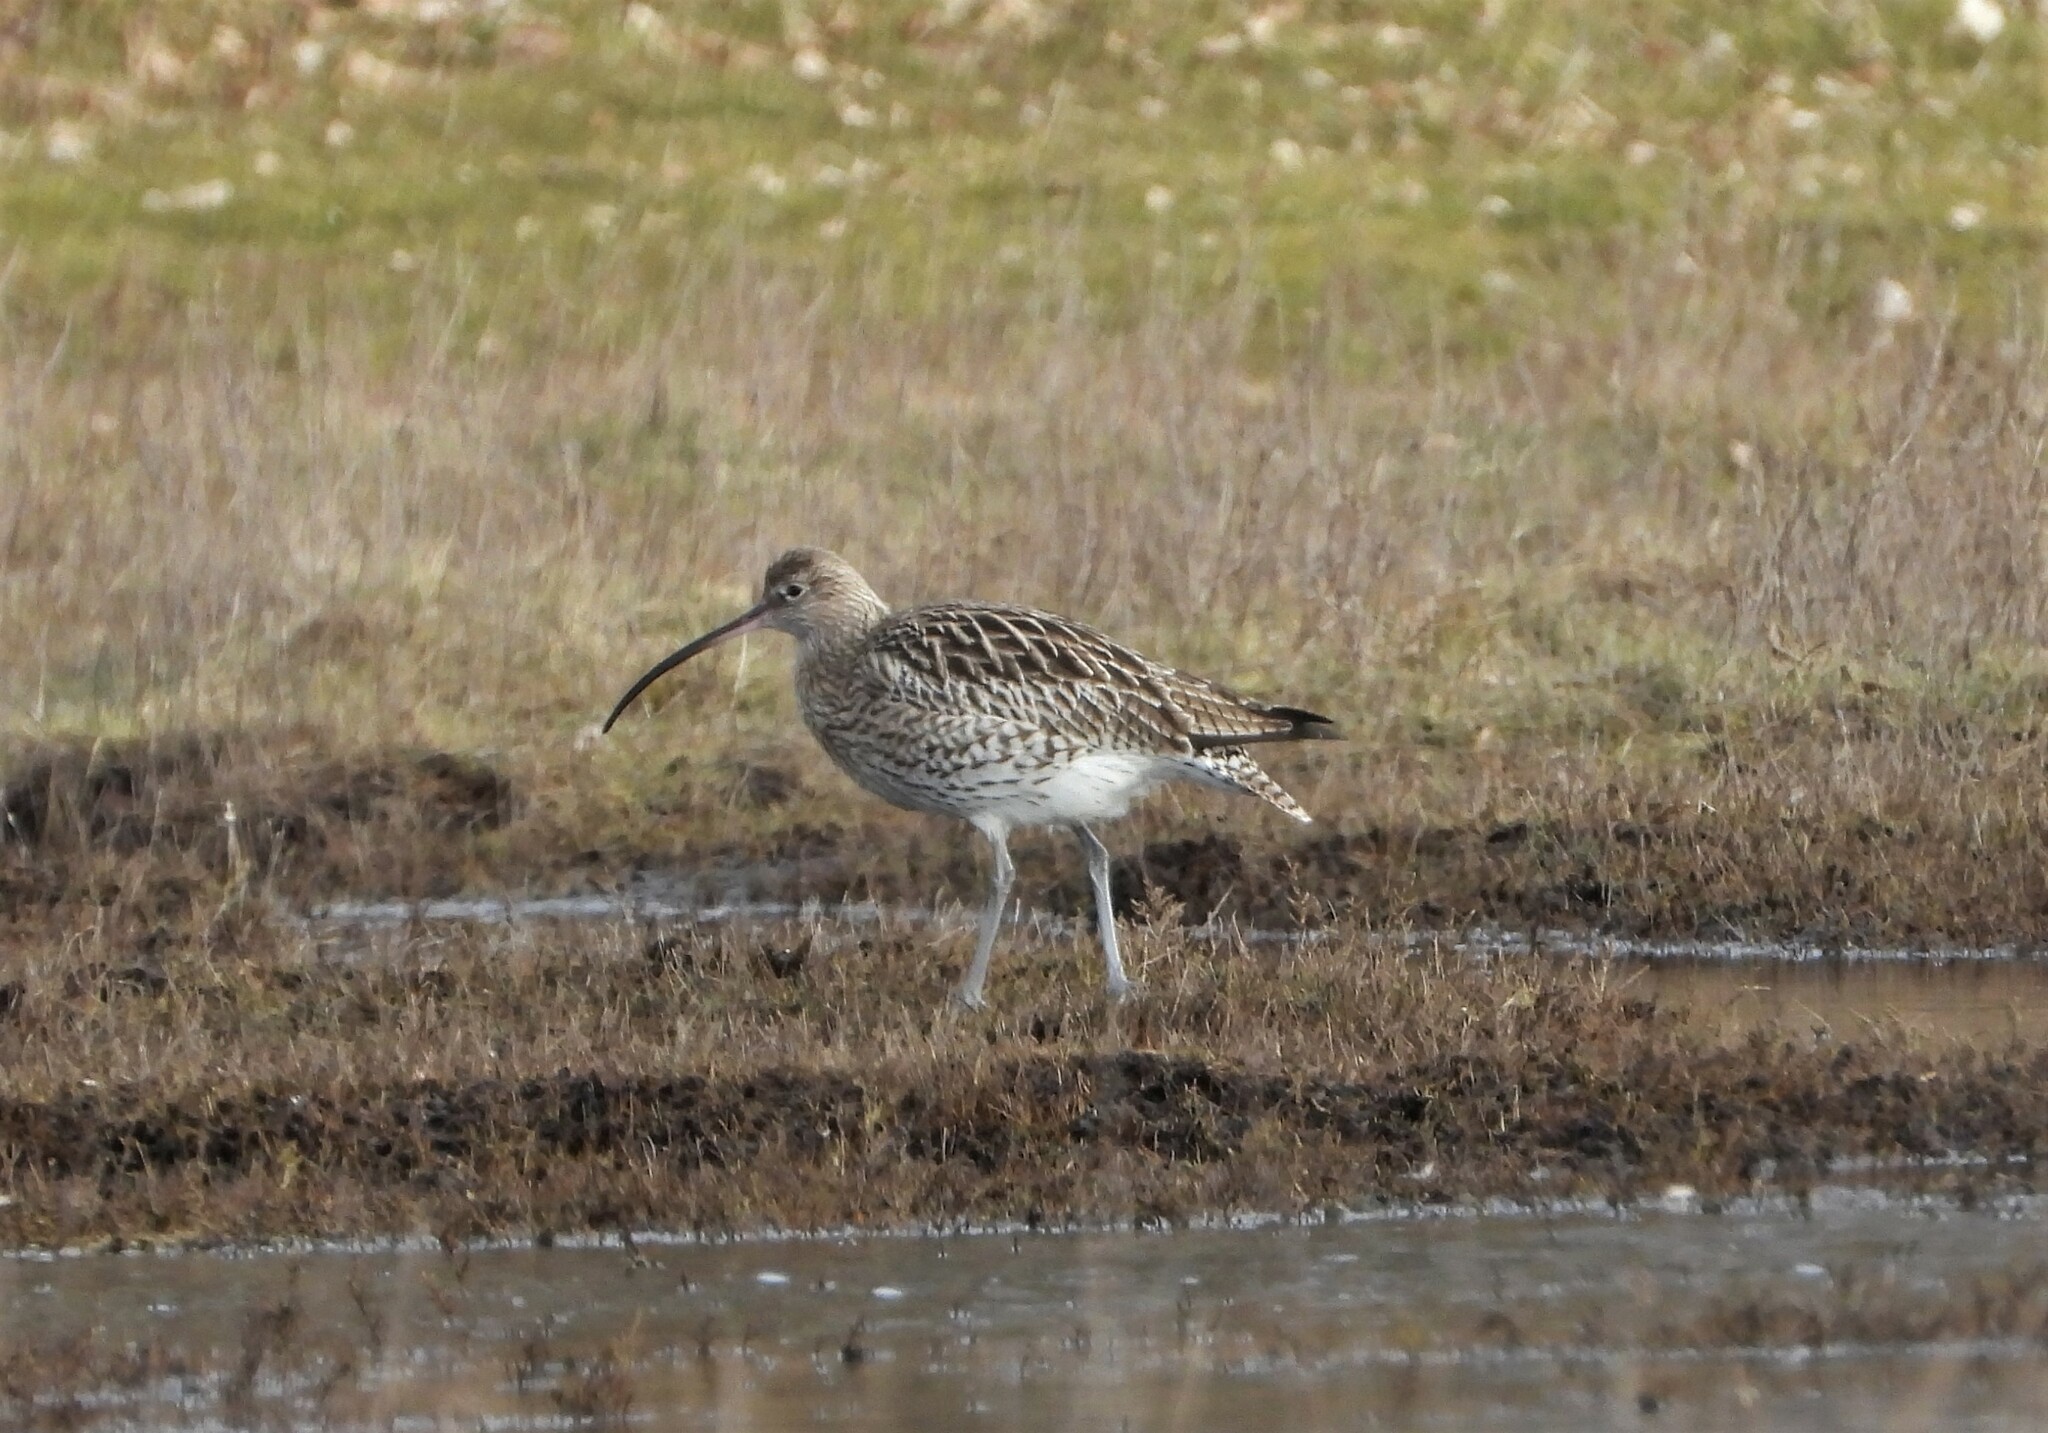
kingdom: Animalia
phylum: Chordata
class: Aves
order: Charadriiformes
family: Scolopacidae
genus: Numenius
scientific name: Numenius arquata
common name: Eurasian curlew
